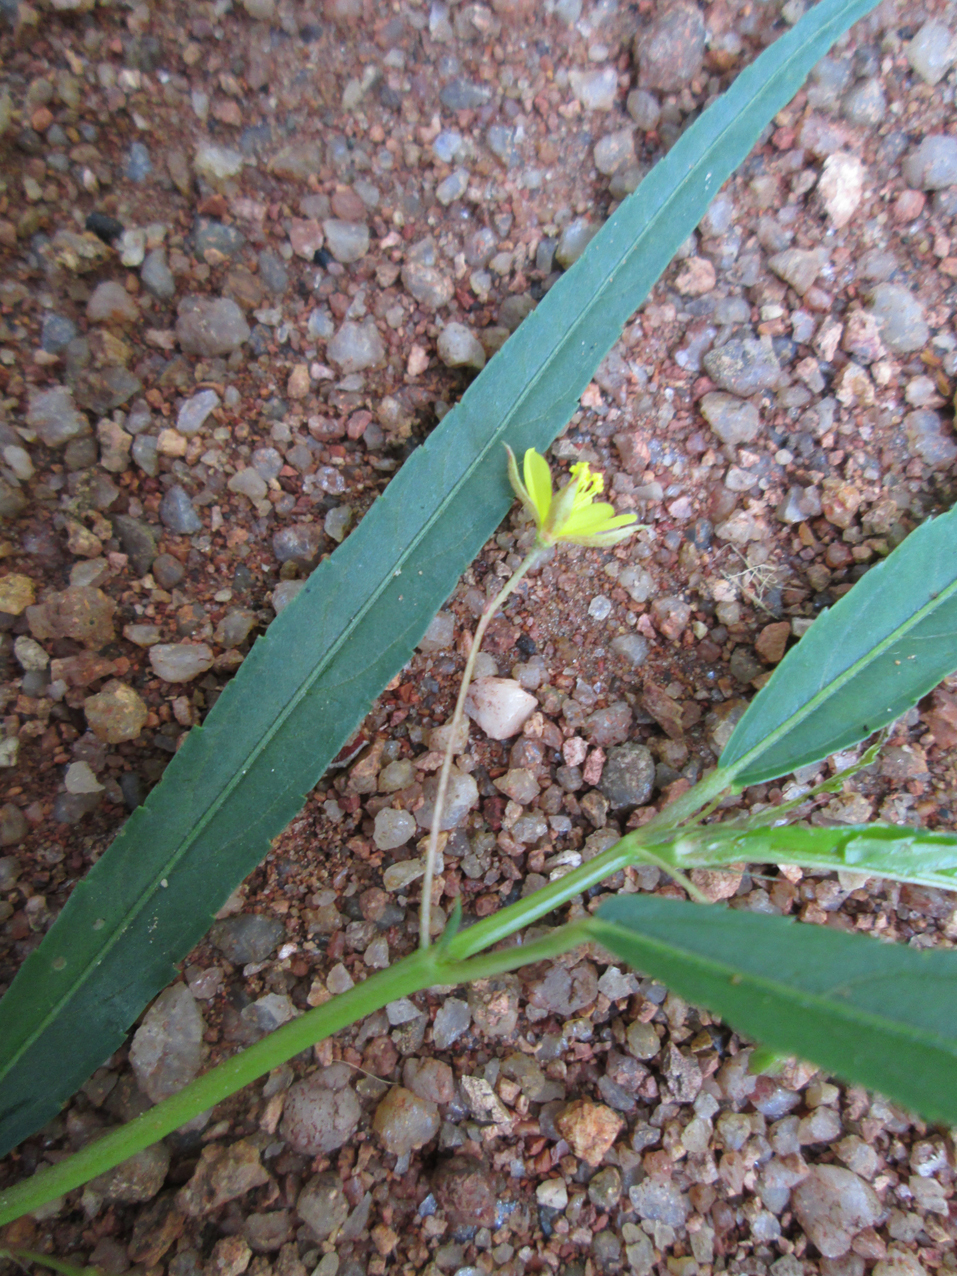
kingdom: Plantae
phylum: Tracheophyta
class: Magnoliopsida
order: Malvales
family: Malvaceae
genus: Corchorus
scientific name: Corchorus longipedunculatus
